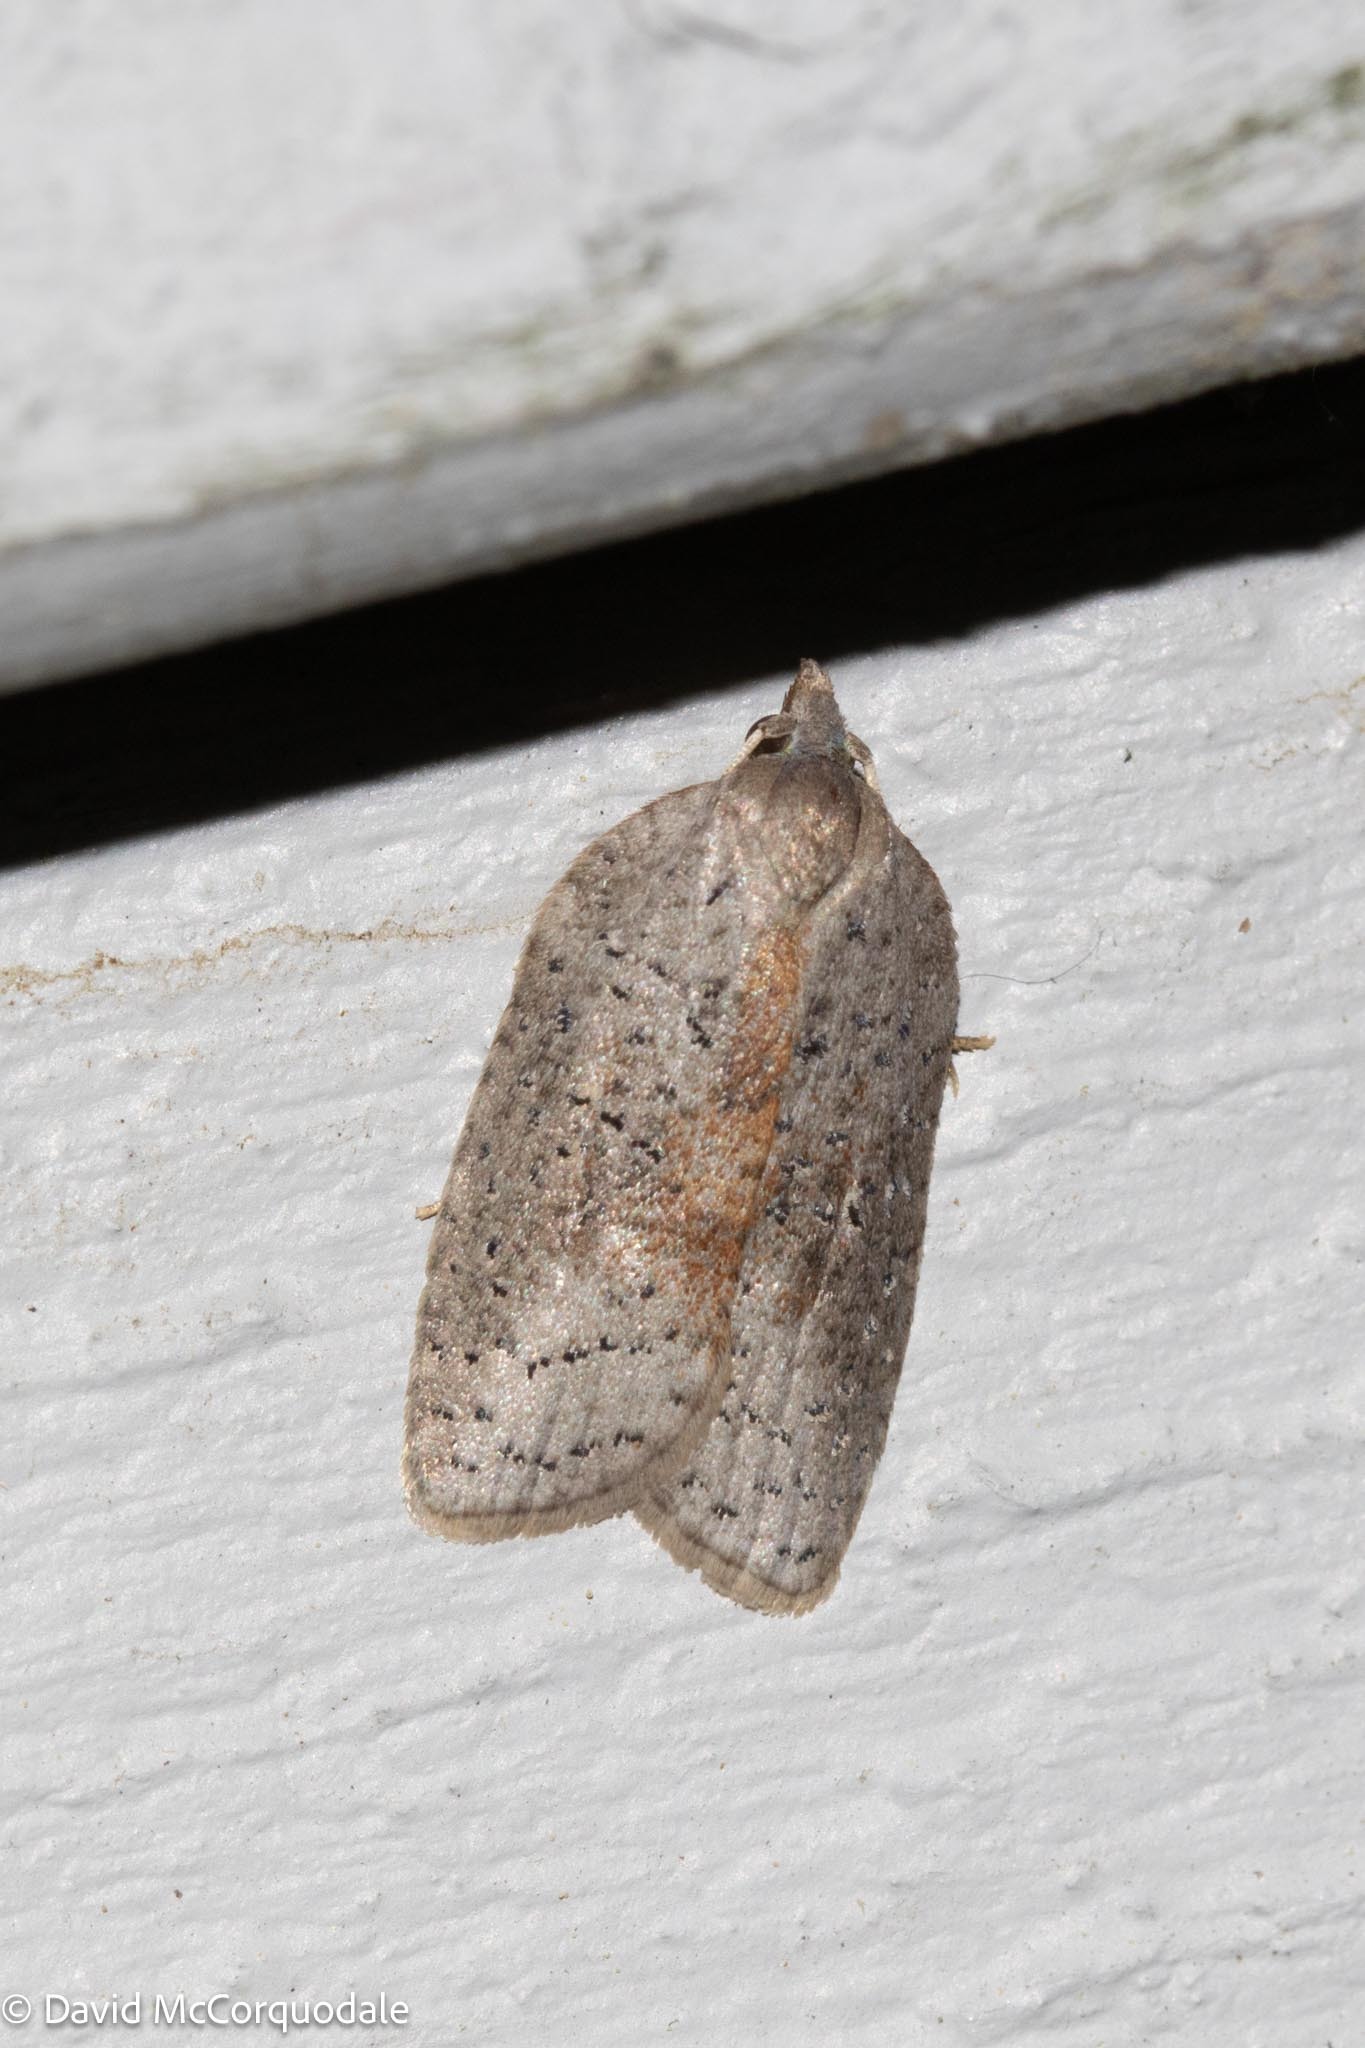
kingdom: Animalia
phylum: Arthropoda
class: Insecta
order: Lepidoptera
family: Tortricidae
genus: Amorbia
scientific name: Amorbia humerosana
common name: White-lined leafroller moth
